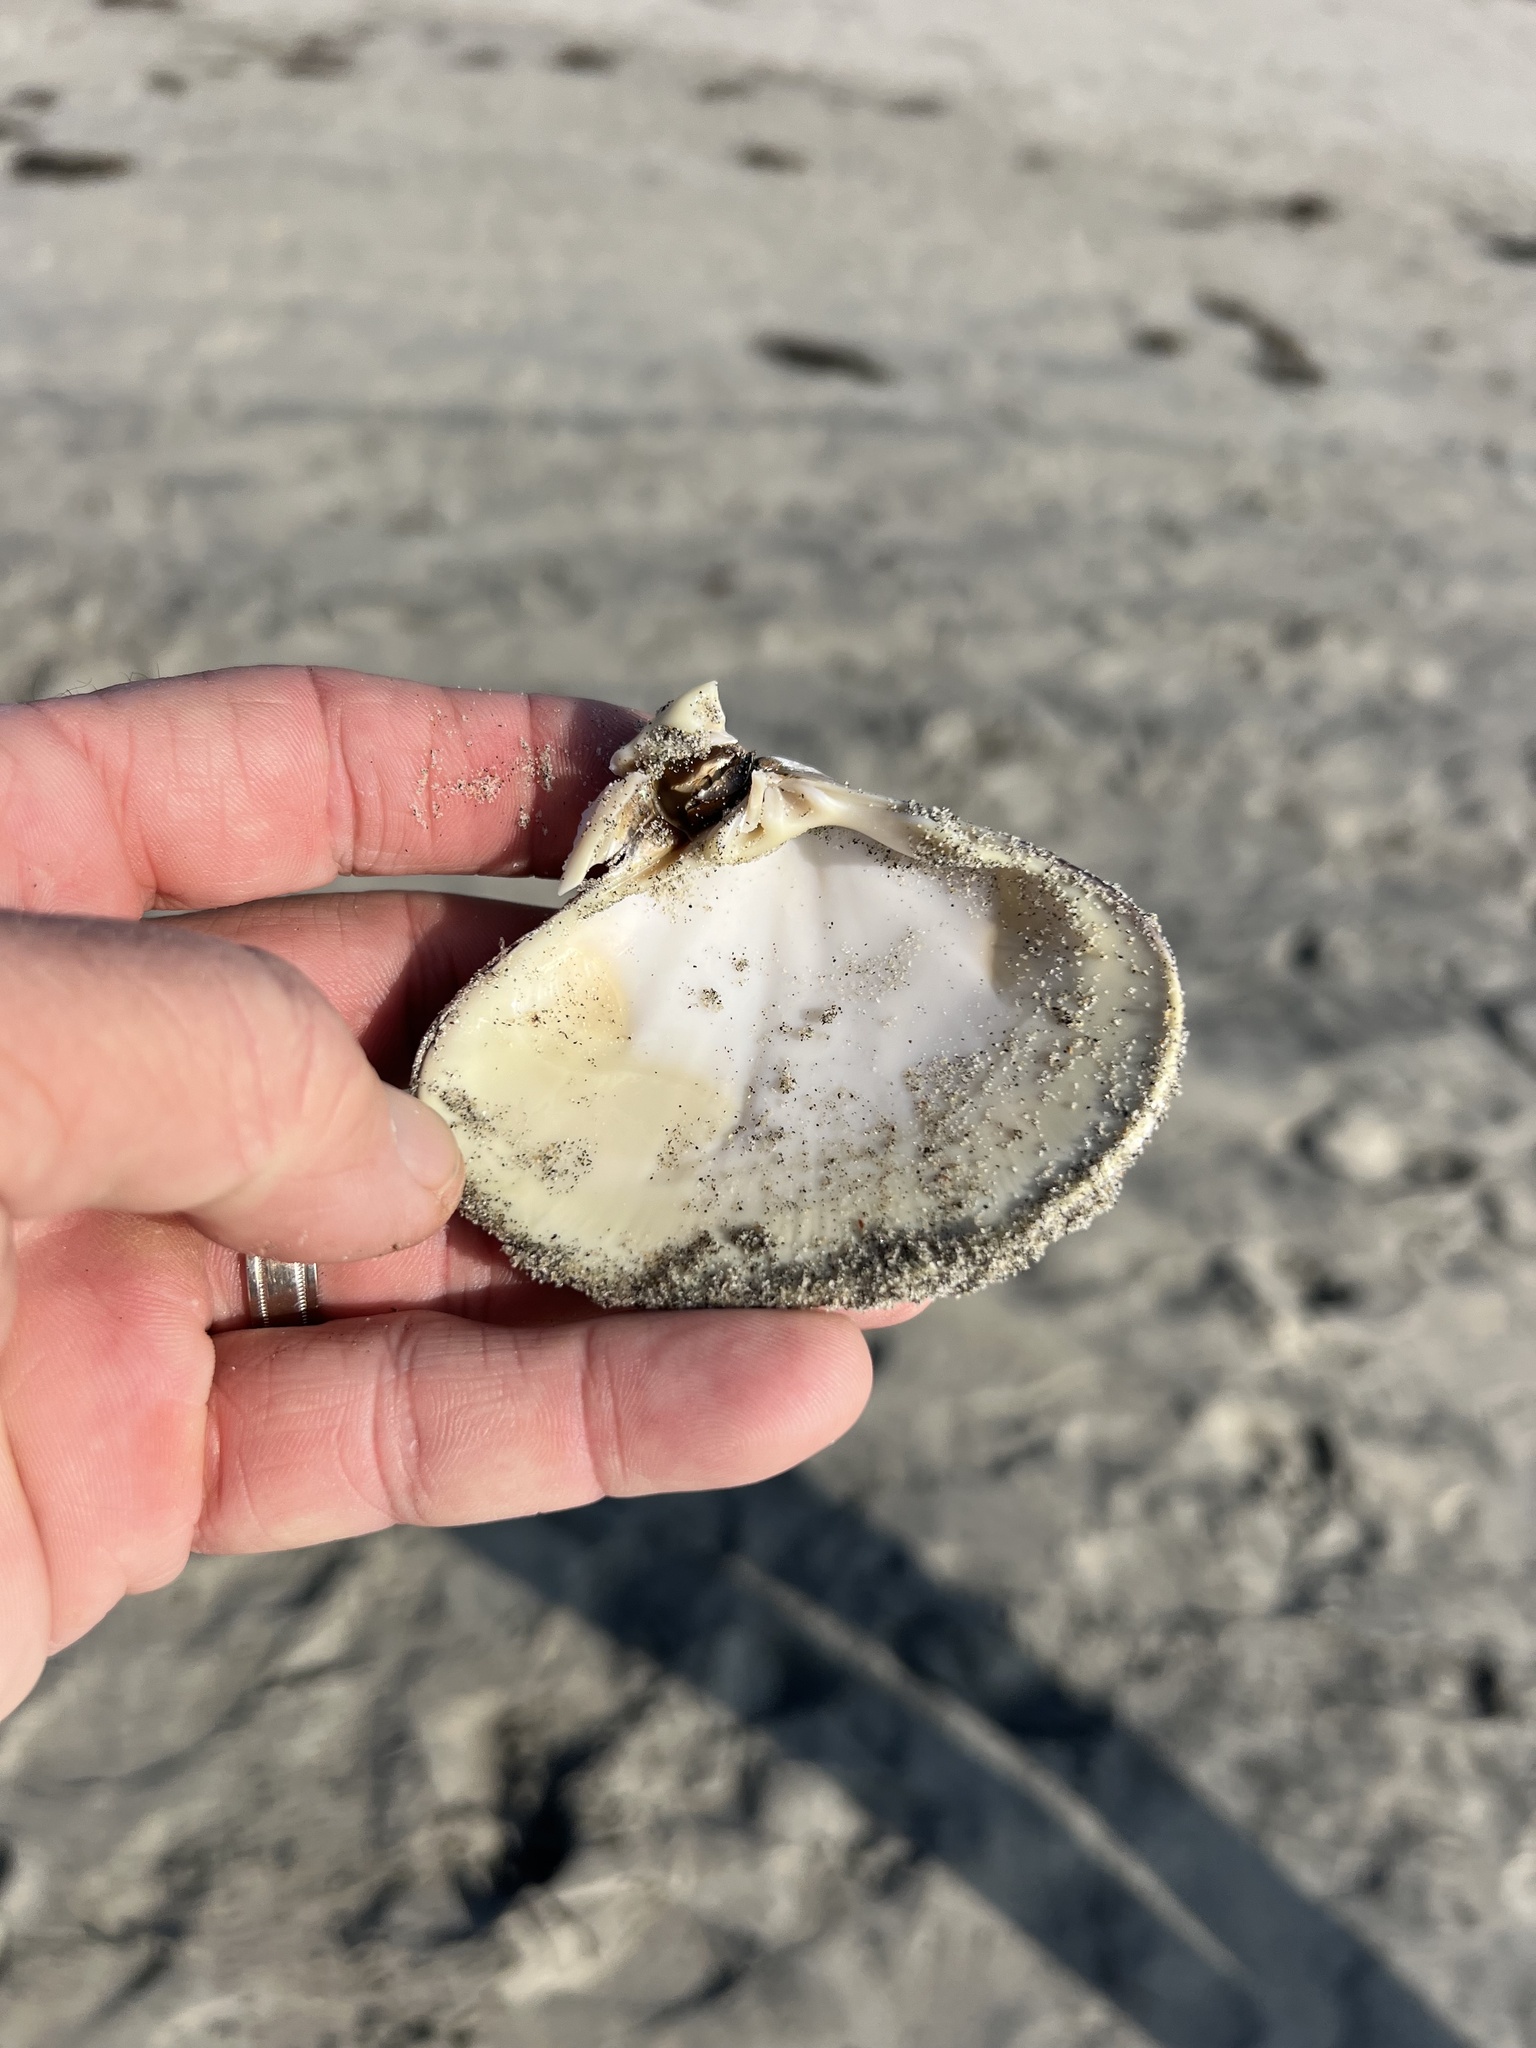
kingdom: Animalia
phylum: Mollusca
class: Bivalvia
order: Venerida
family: Veneridae
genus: Tivela
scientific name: Tivela stultorum
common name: Pismo clam
